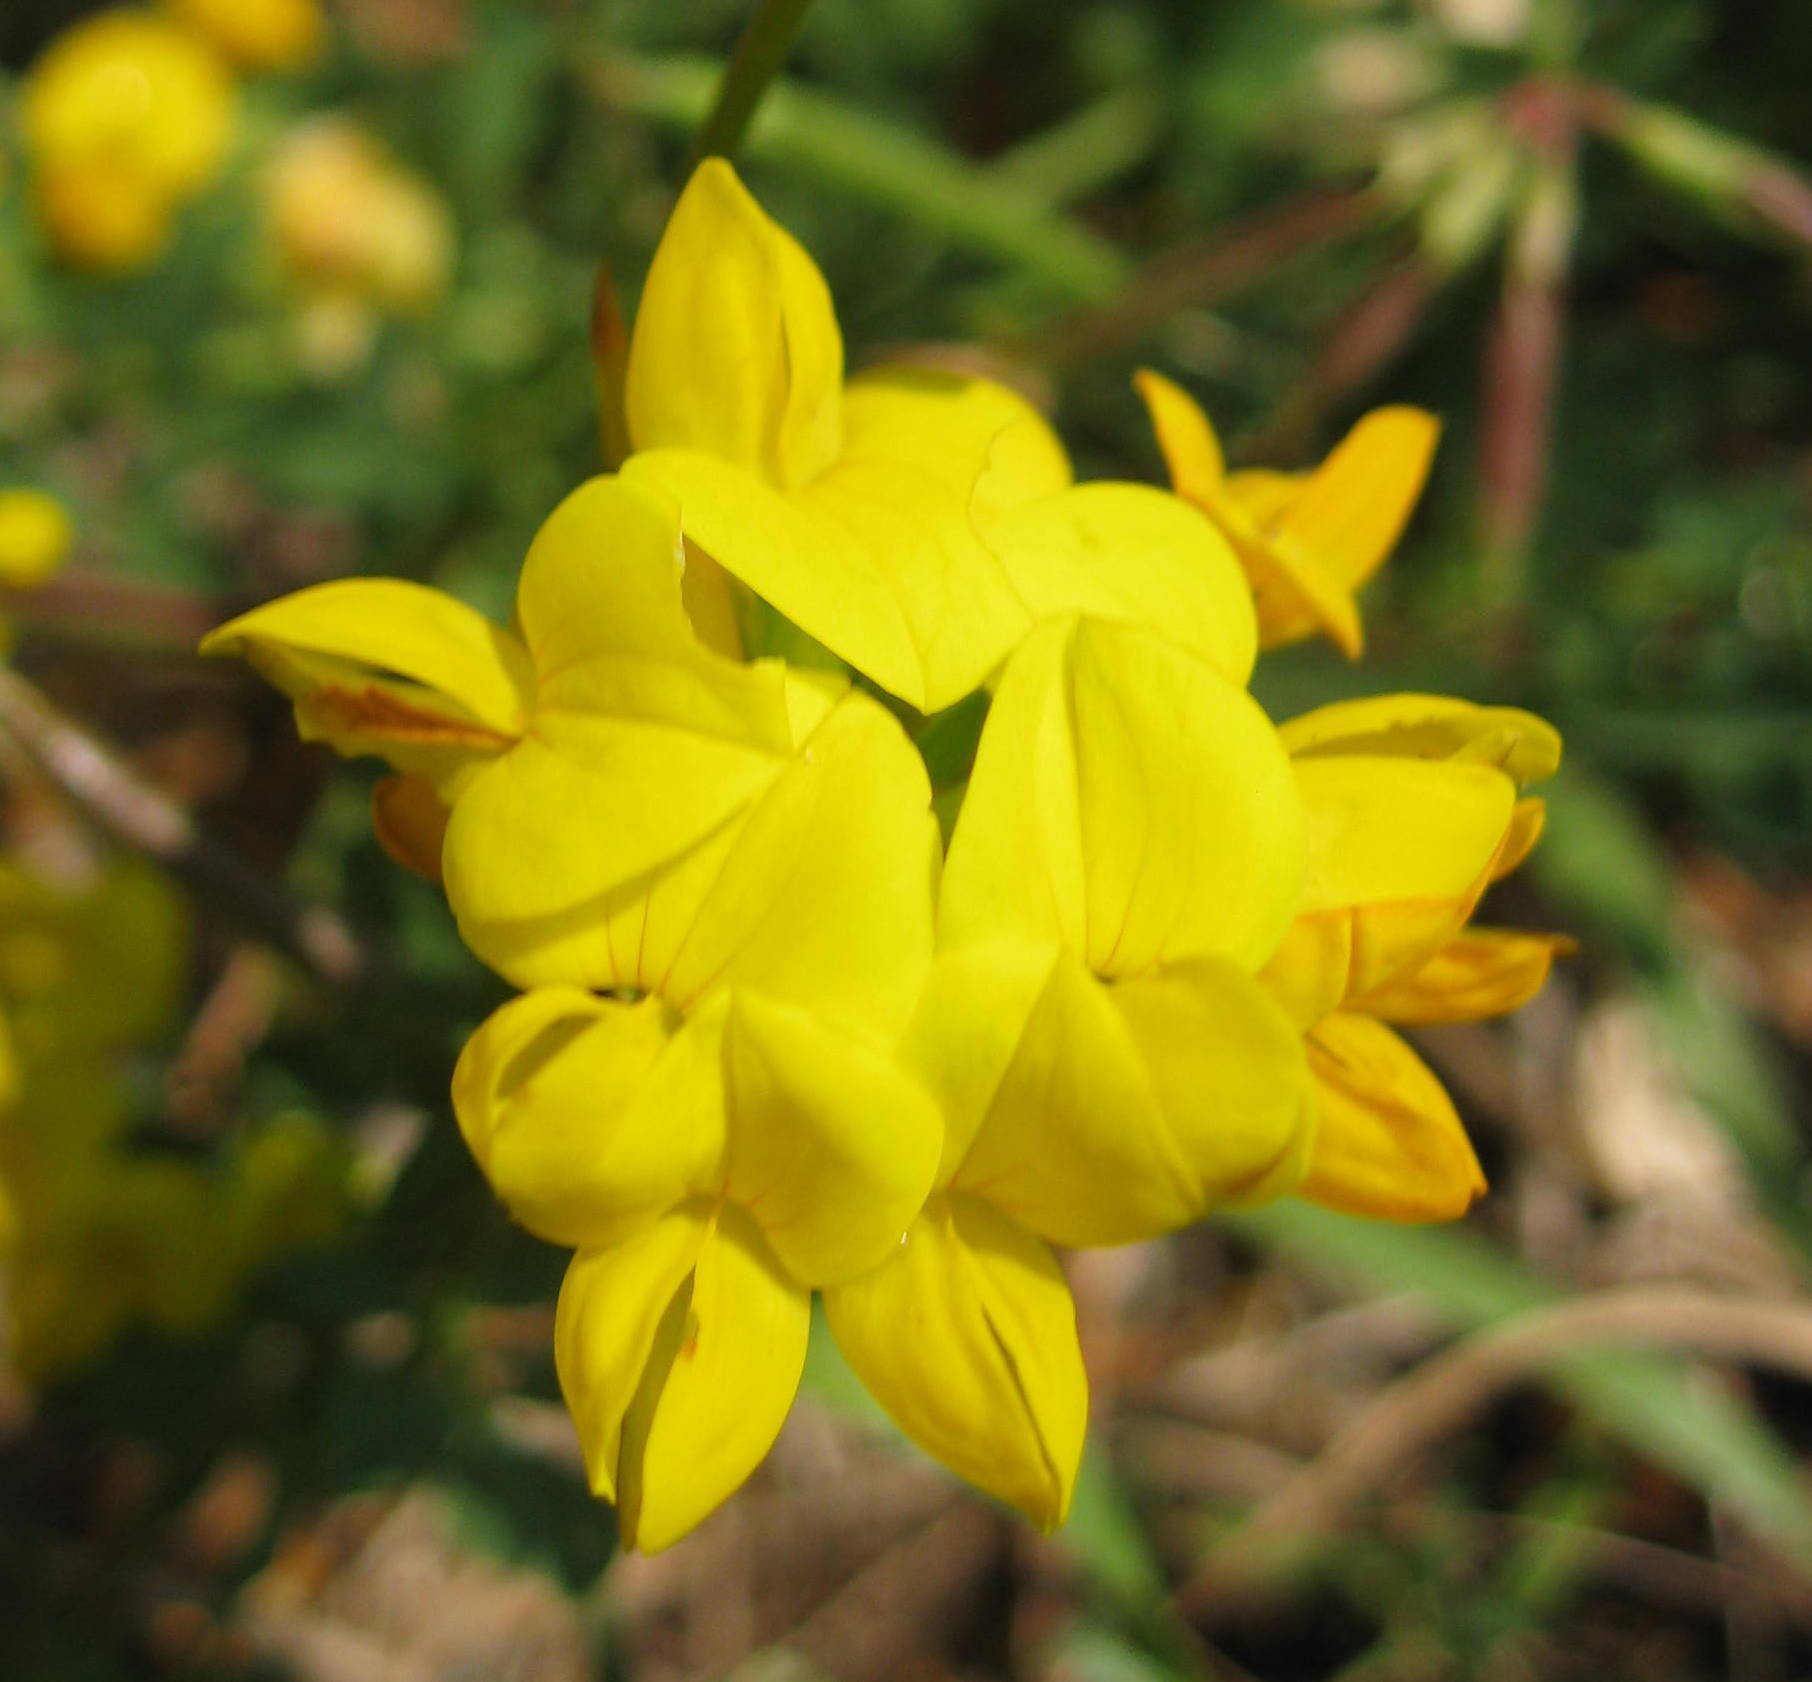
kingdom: Plantae
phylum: Tracheophyta
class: Magnoliopsida
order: Fabales
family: Fabaceae
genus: Lotus
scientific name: Lotus corniculatus
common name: Common bird's-foot-trefoil
